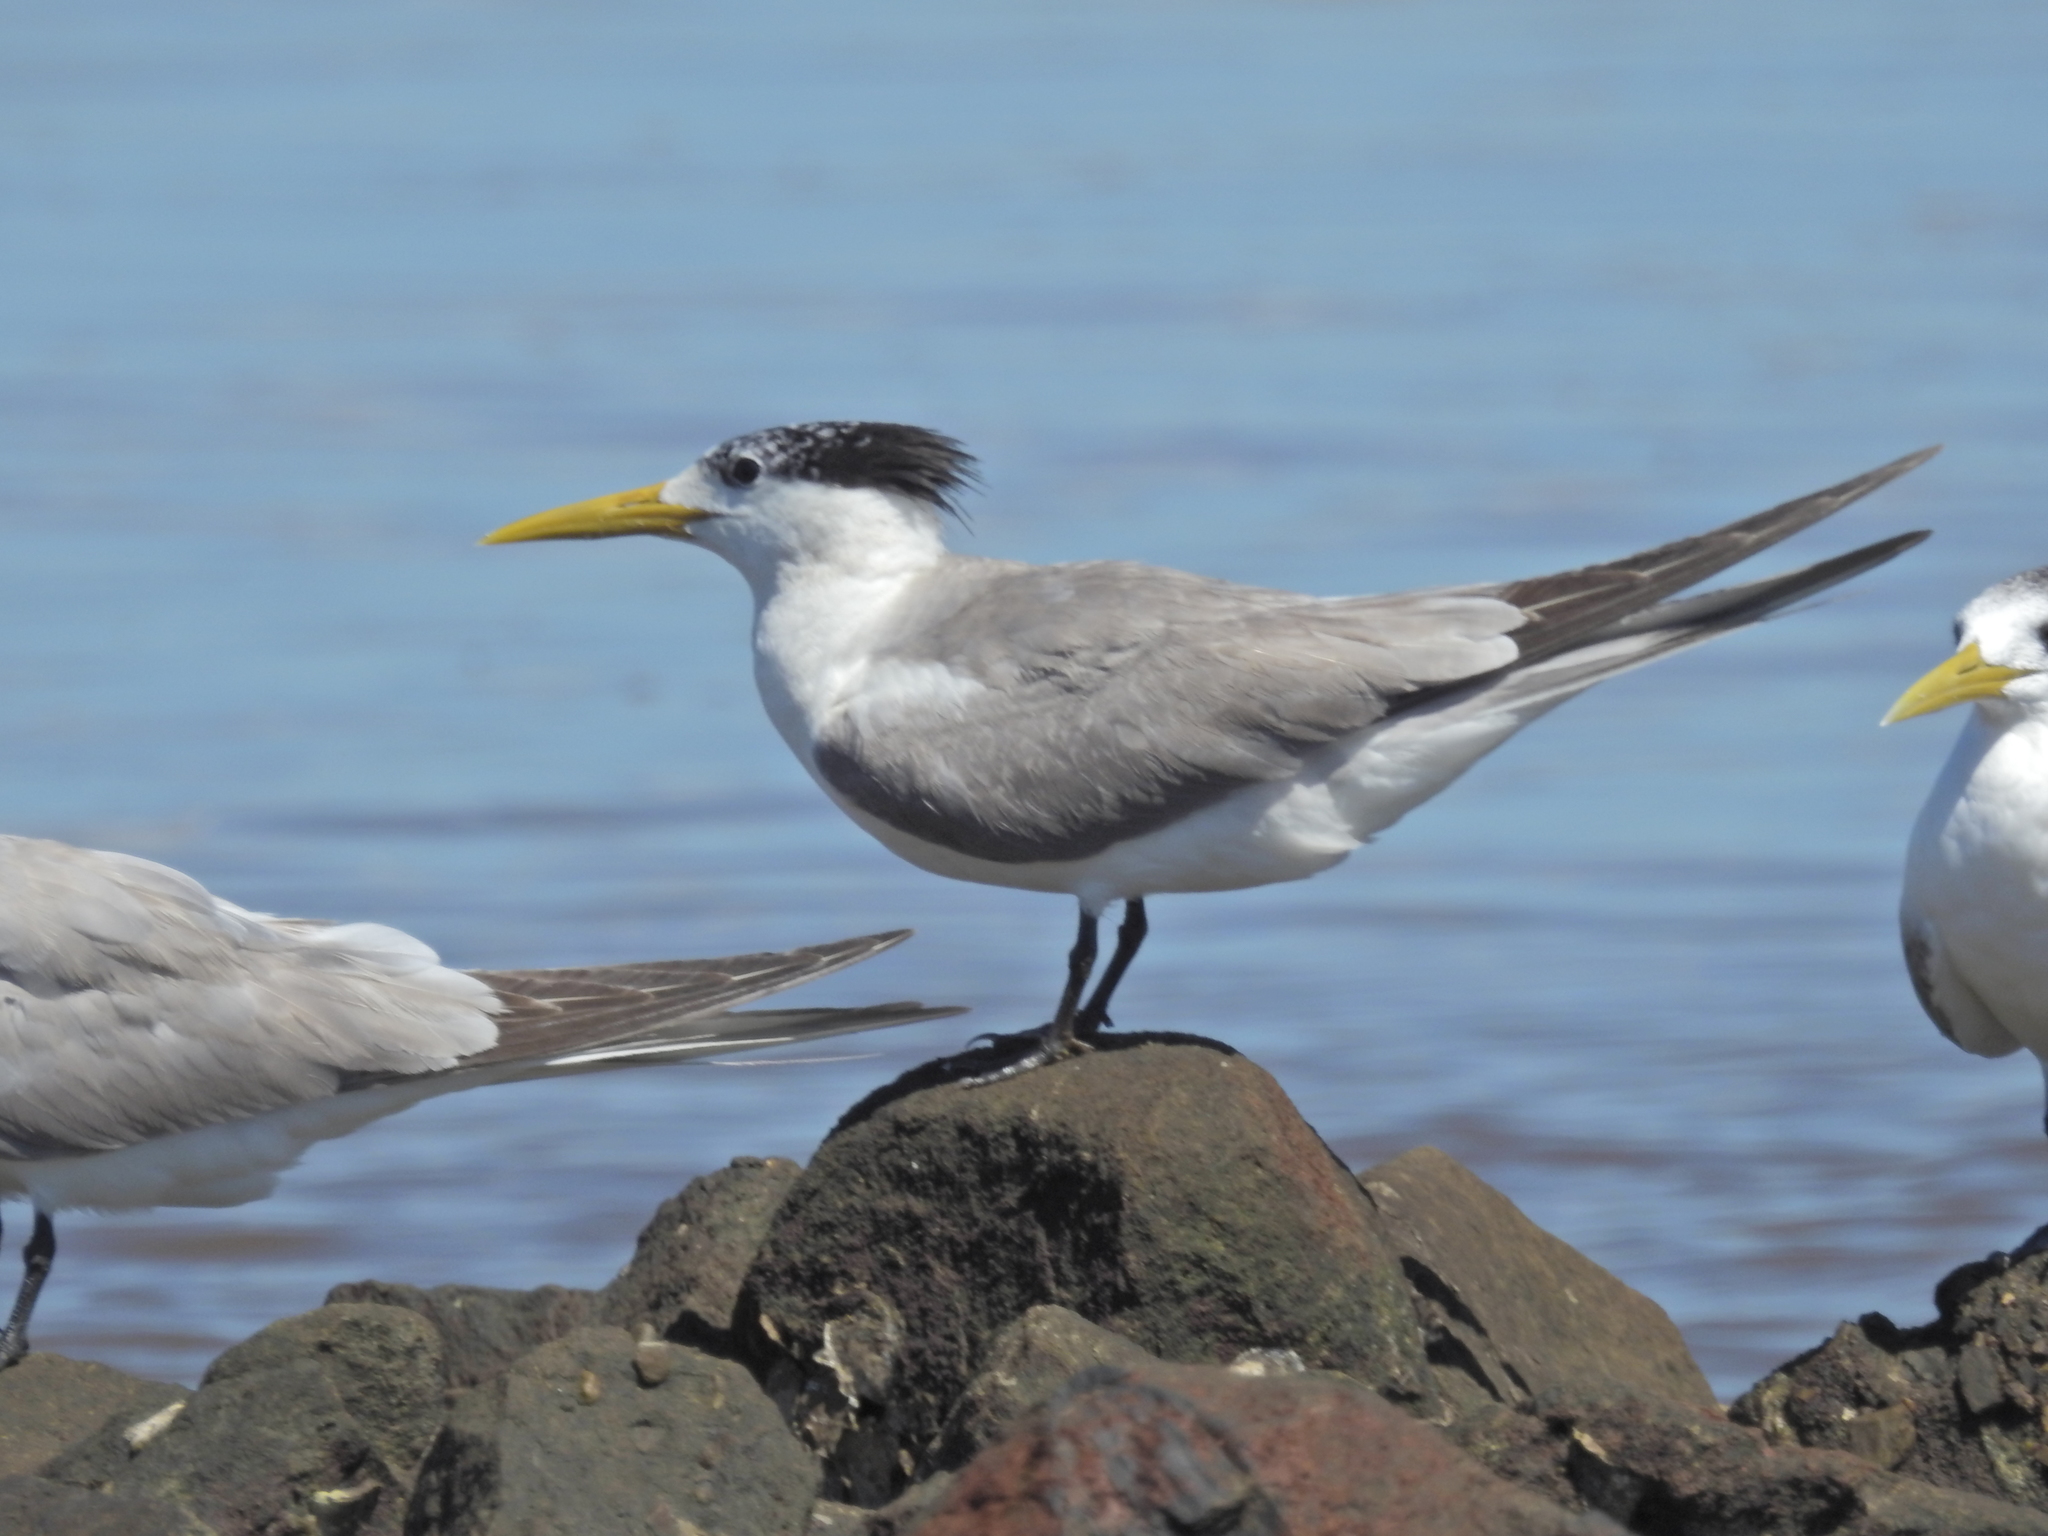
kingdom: Animalia
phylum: Chordata
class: Aves
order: Charadriiformes
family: Laridae
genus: Thalasseus
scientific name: Thalasseus bergii
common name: Greater crested tern
